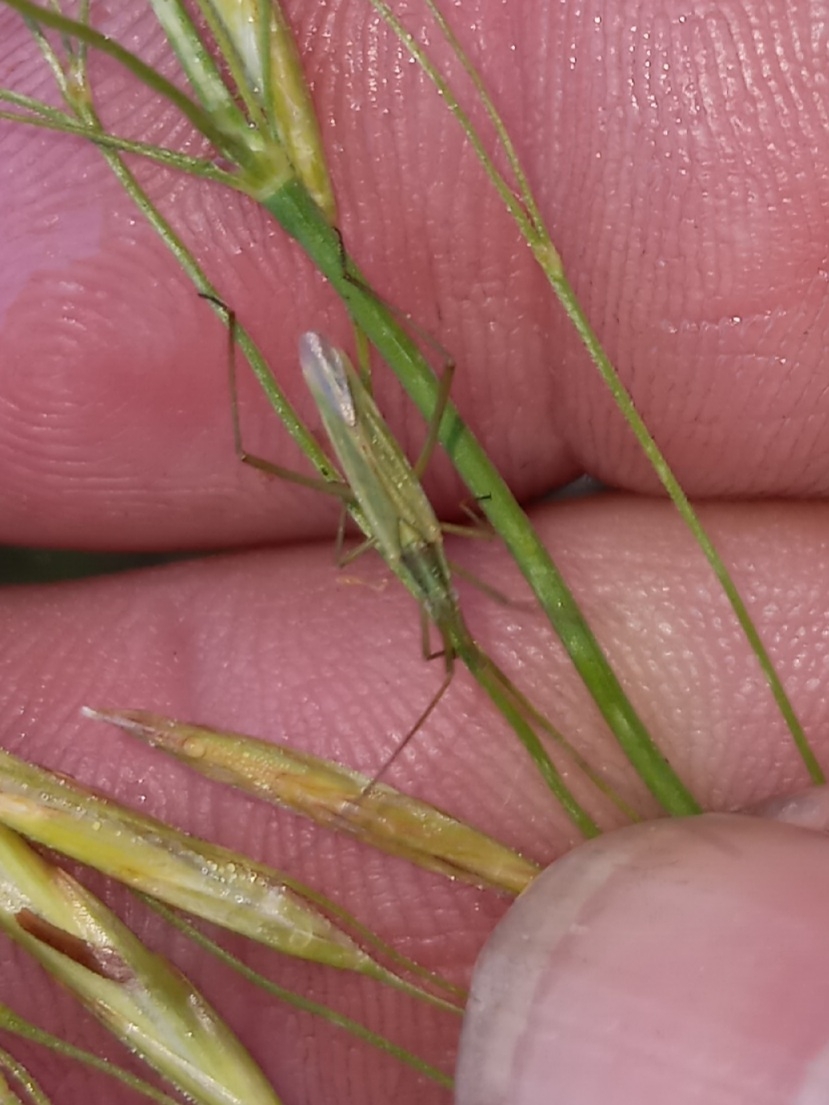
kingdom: Animalia
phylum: Arthropoda
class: Insecta
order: Hemiptera
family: Miridae
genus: Megaloceroea
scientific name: Megaloceroea recticornis
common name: Plant bug
